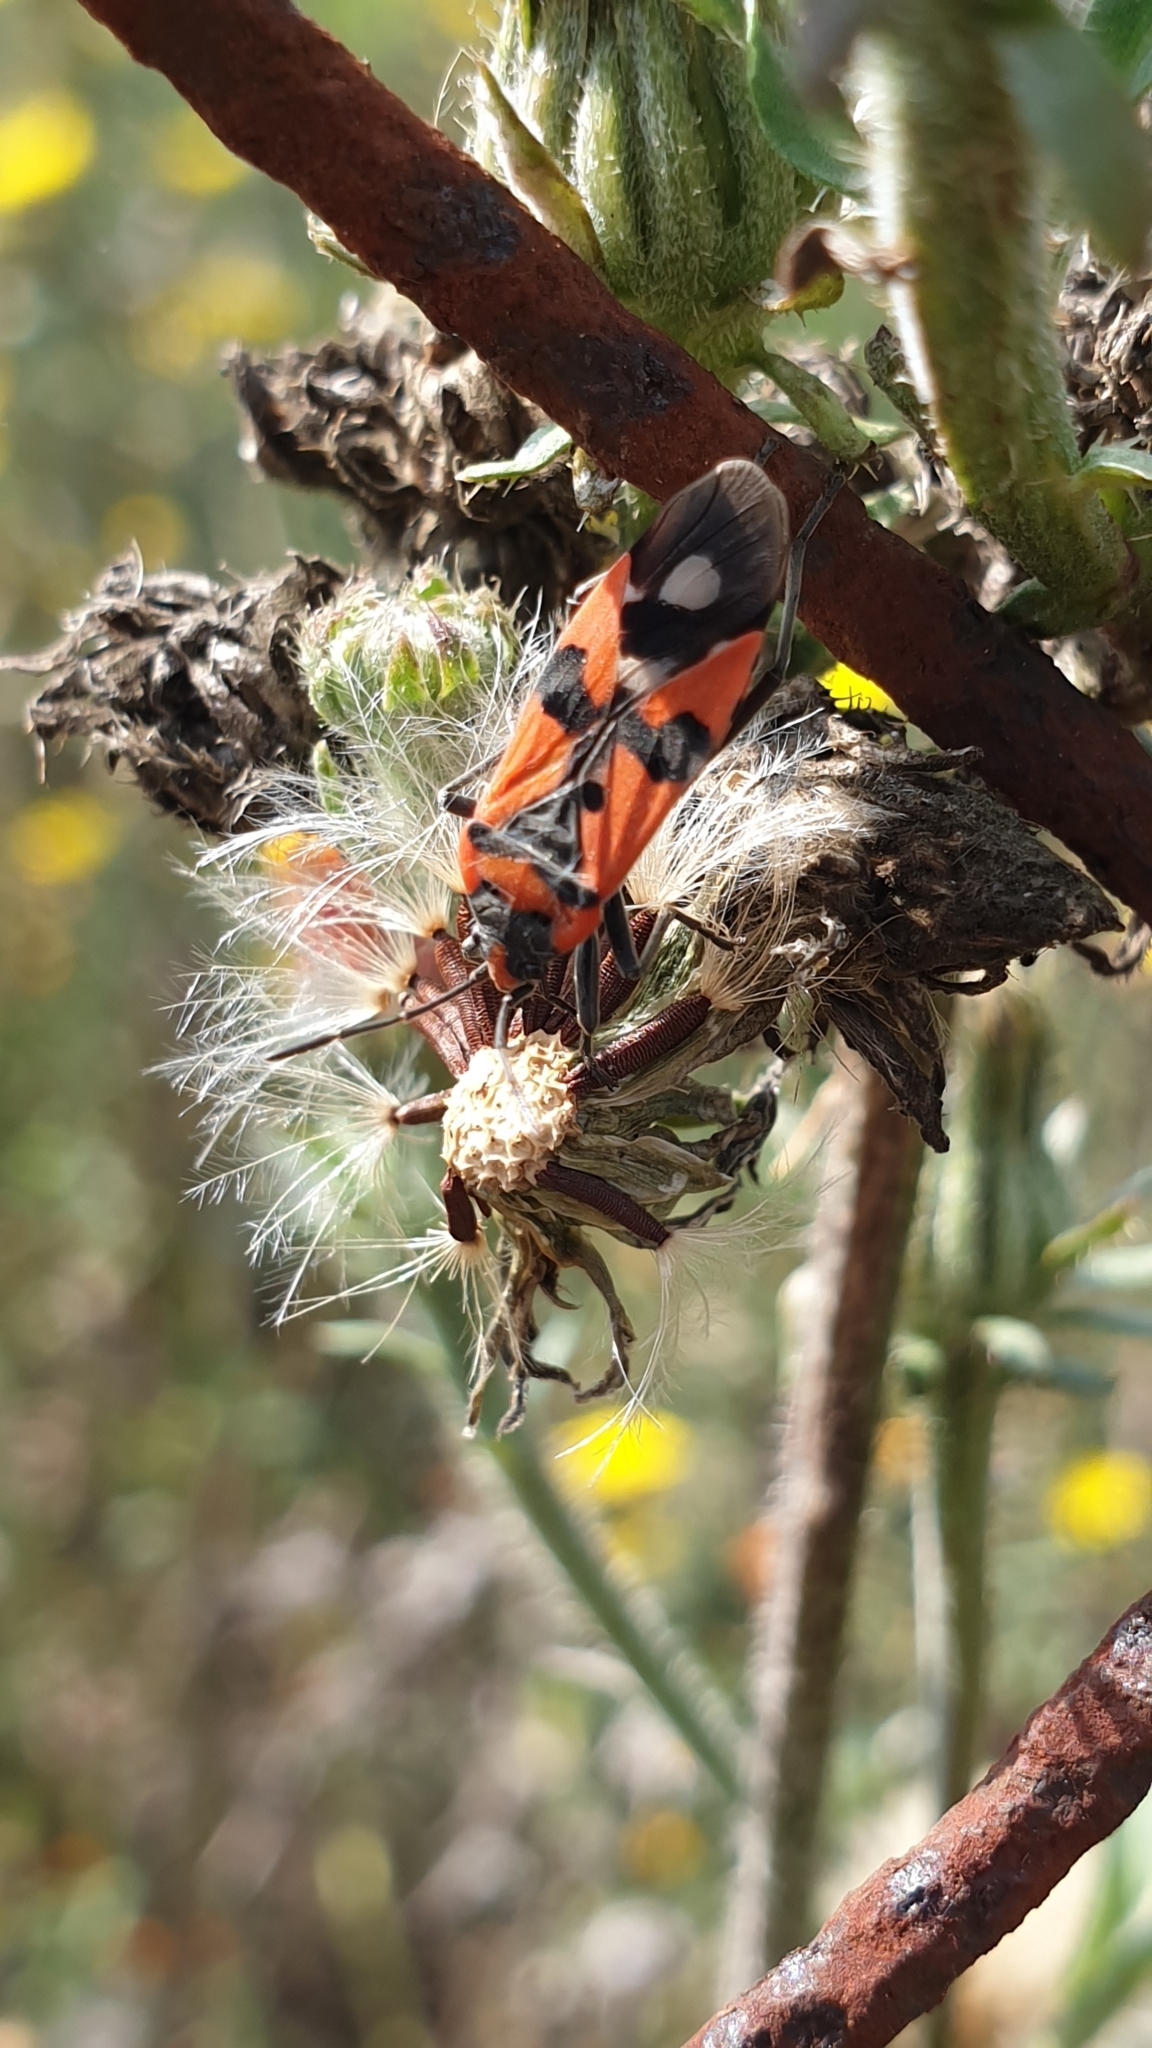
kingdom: Animalia
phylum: Arthropoda
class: Insecta
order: Hemiptera
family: Lygaeidae
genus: Lygaeus
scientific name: Lygaeus equestris
